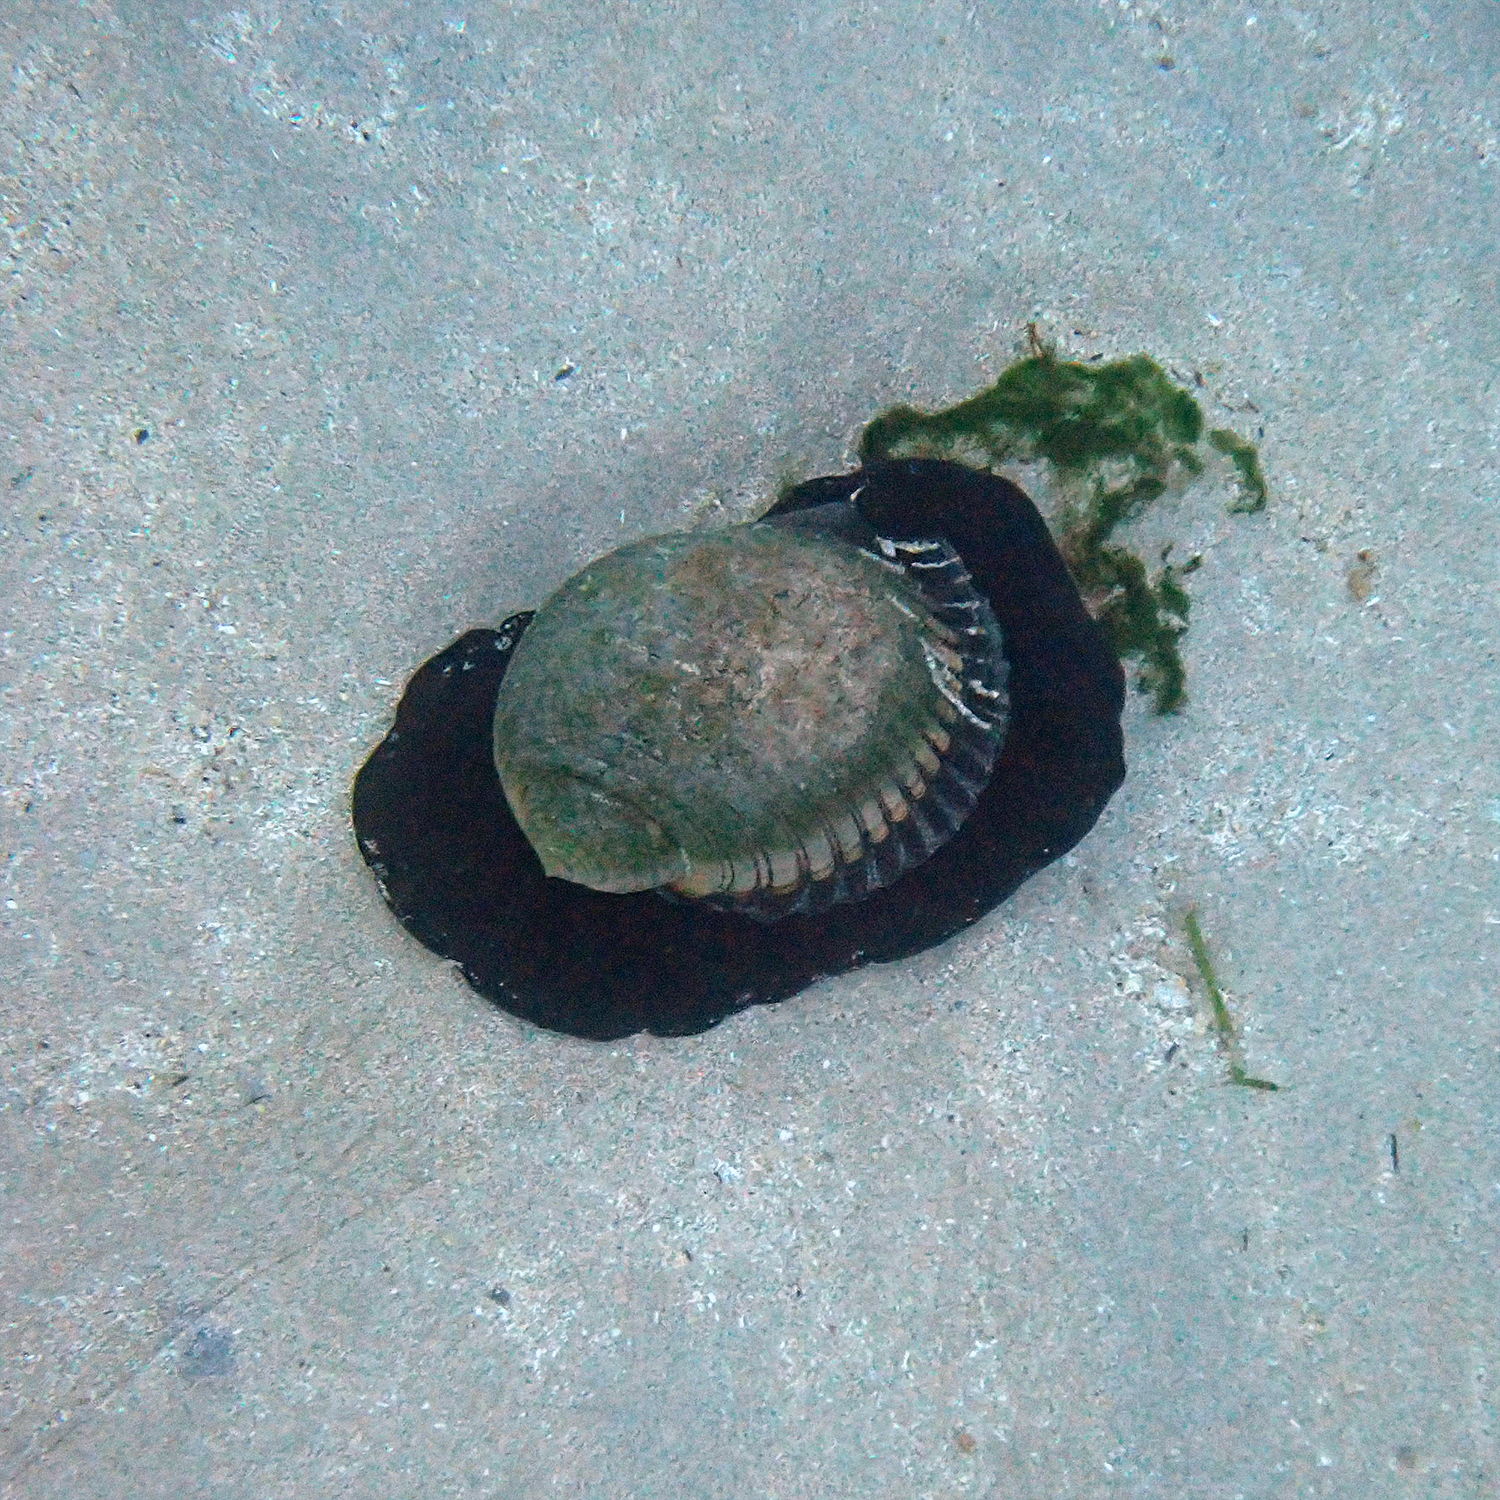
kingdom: Animalia
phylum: Mollusca
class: Gastropoda
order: Littorinimorpha
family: Tonnidae
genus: Tonna
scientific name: Tonna melanostoma
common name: Black mouthed tun
